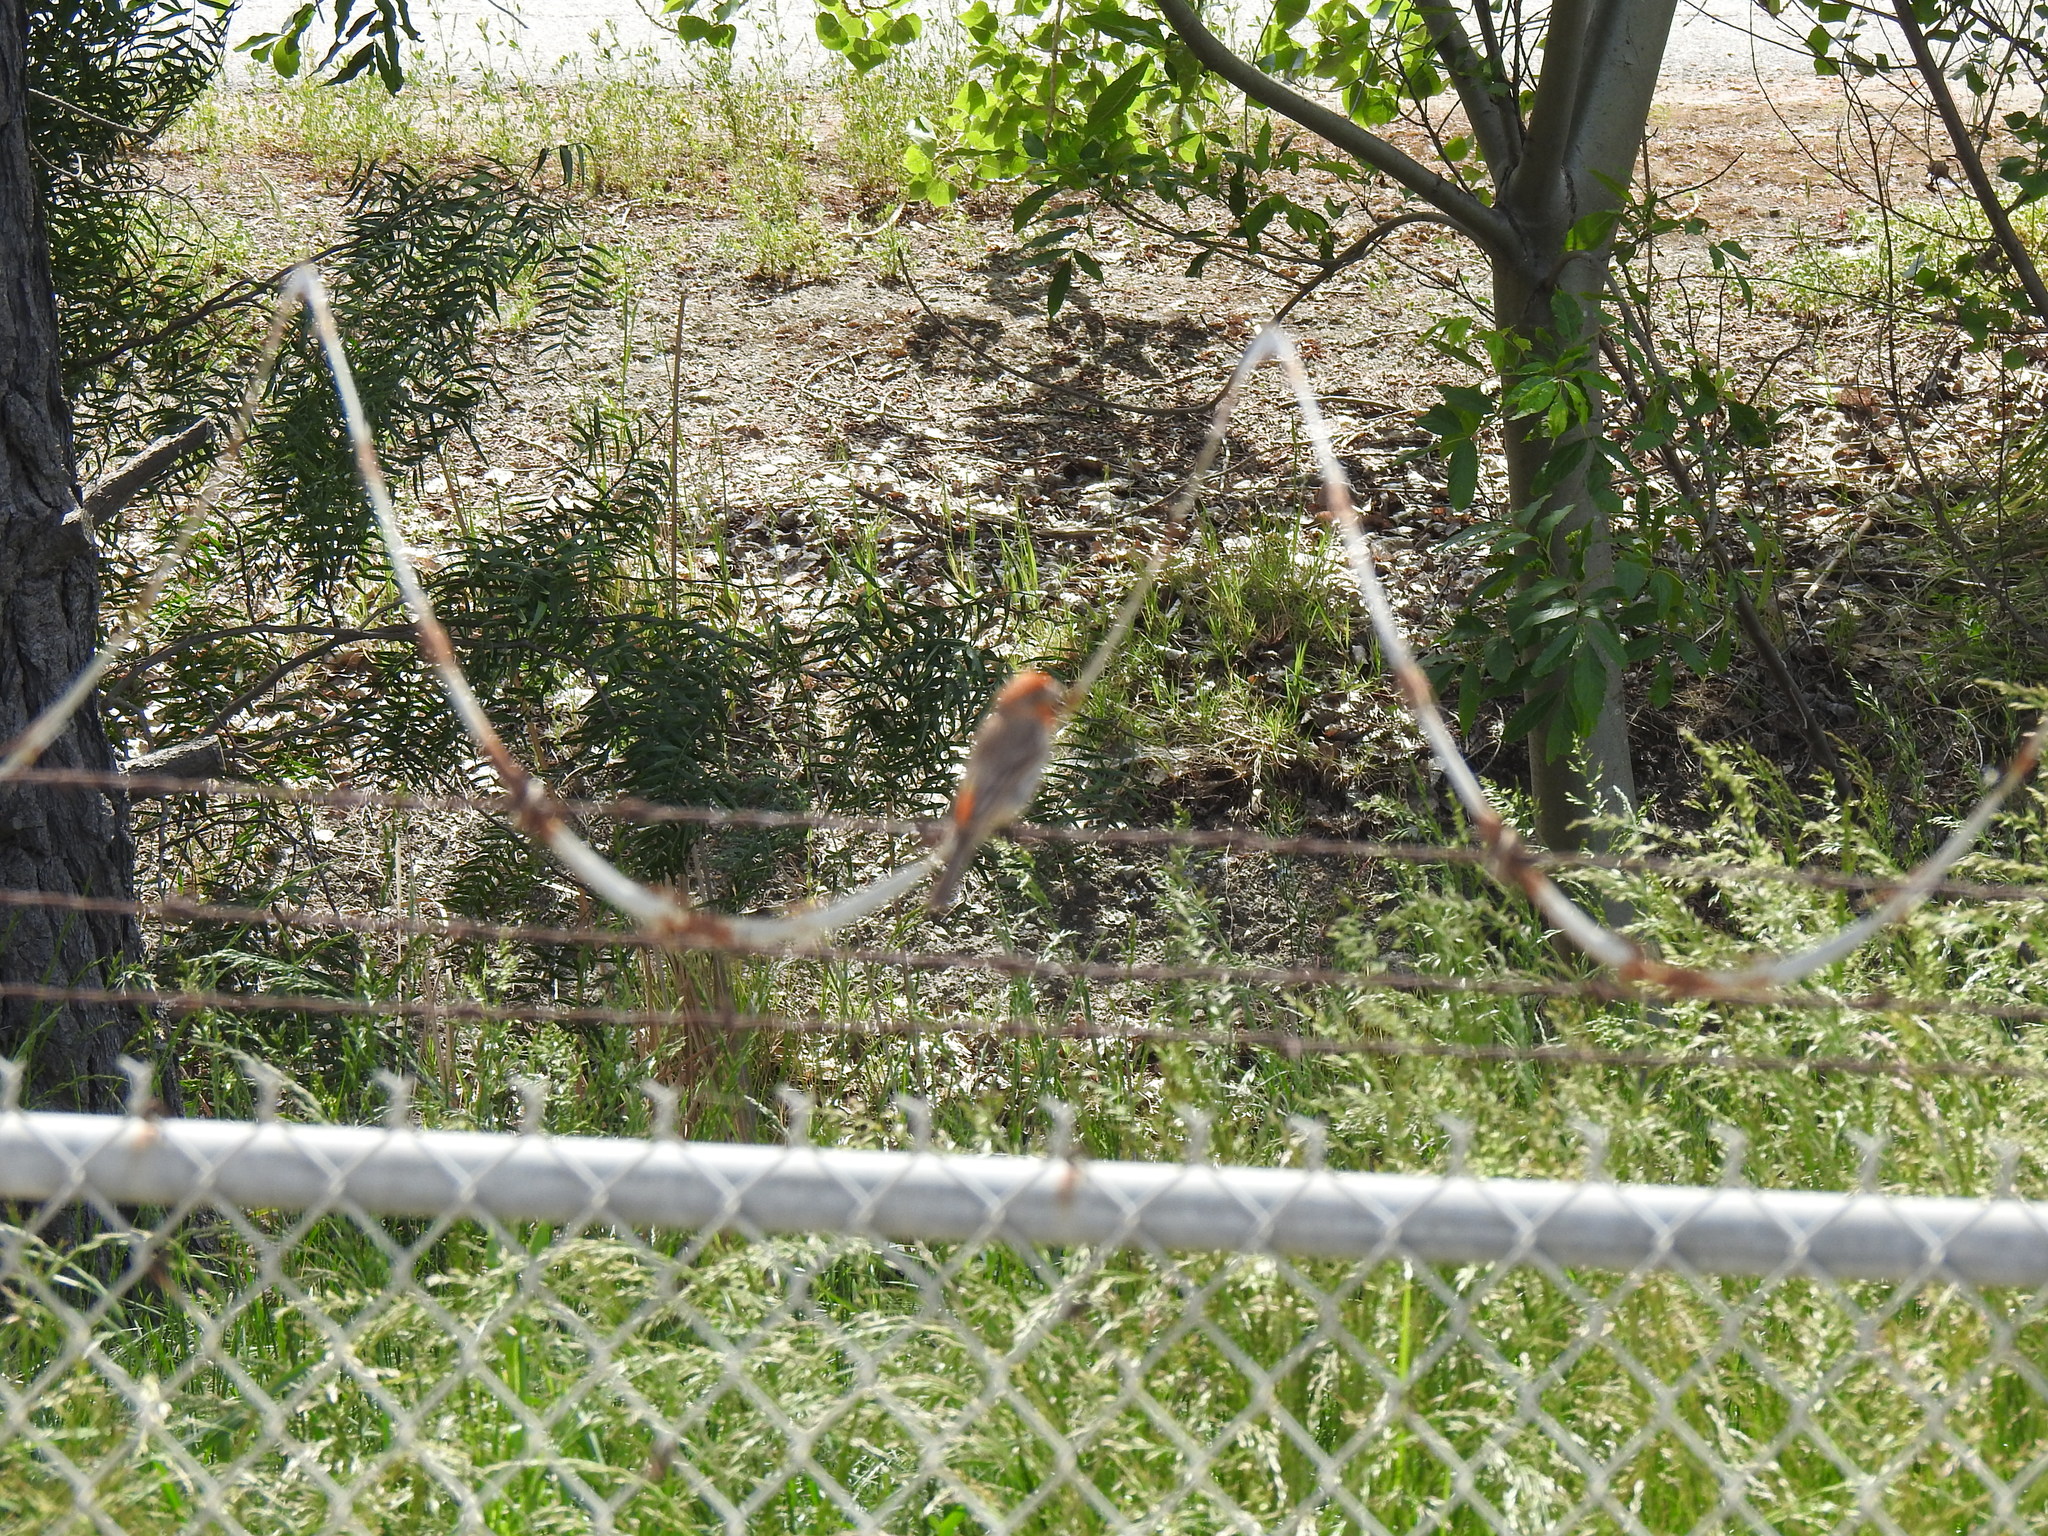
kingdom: Animalia
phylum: Chordata
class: Aves
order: Passeriformes
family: Fringillidae
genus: Haemorhous
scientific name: Haemorhous mexicanus
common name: House finch
